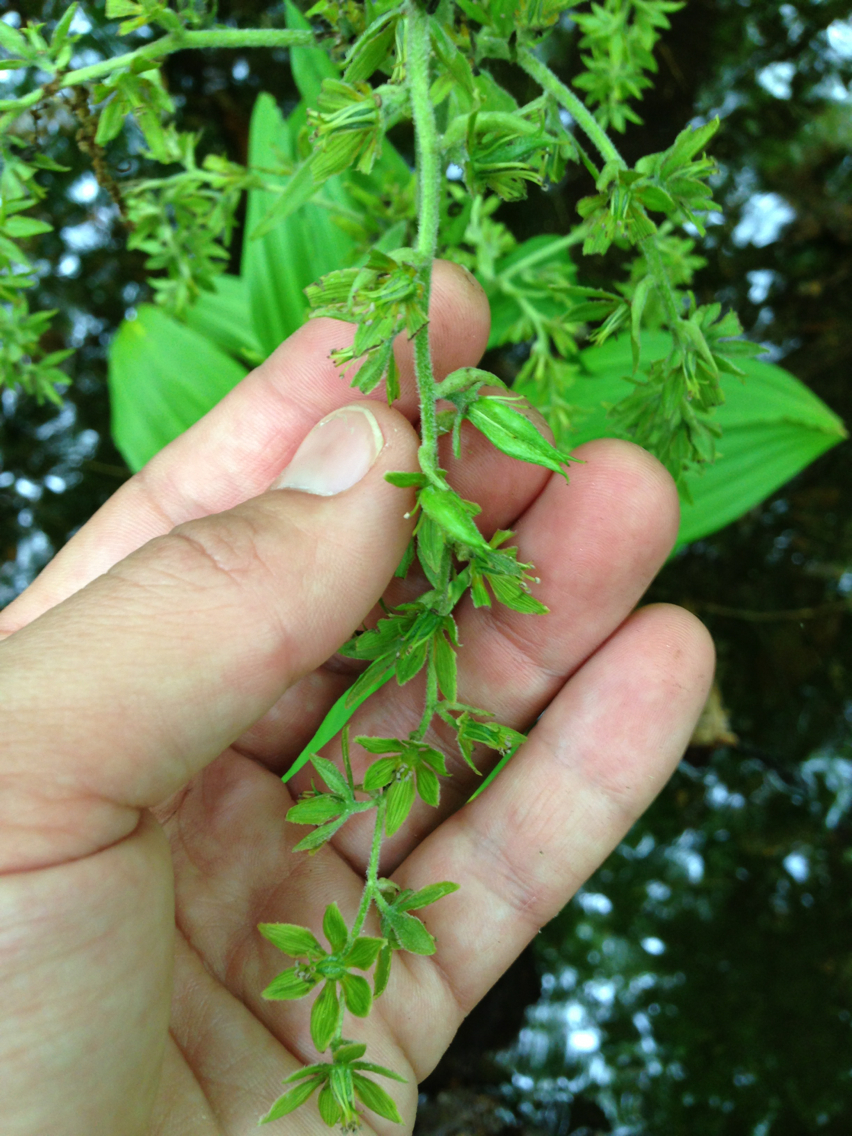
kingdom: Plantae
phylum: Tracheophyta
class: Liliopsida
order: Liliales
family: Melanthiaceae
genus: Veratrum
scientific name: Veratrum viride
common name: American false hellebore
